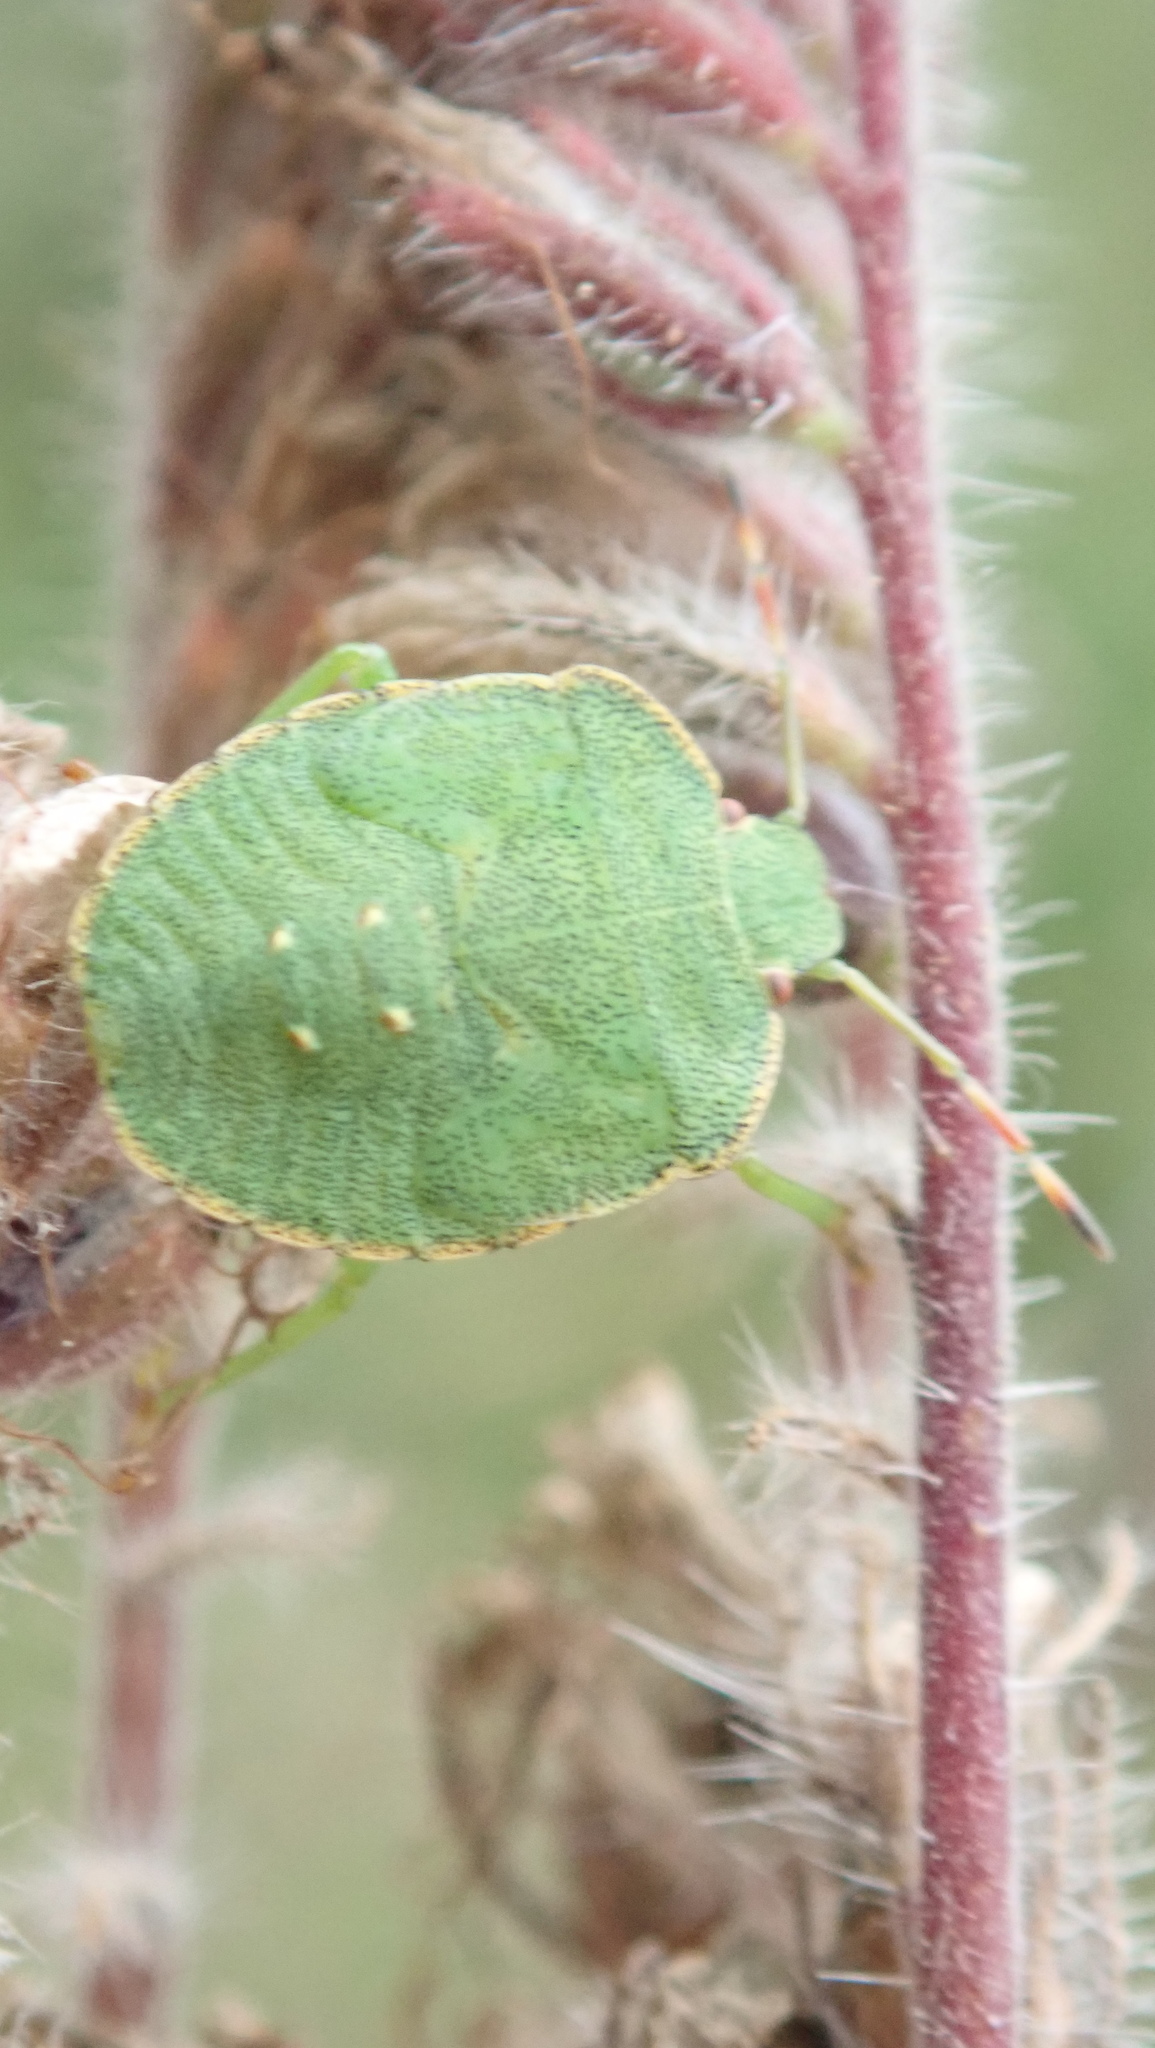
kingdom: Animalia
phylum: Arthropoda
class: Insecta
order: Hemiptera
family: Pentatomidae
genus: Palomena
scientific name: Palomena prasina
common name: Green shieldbug
